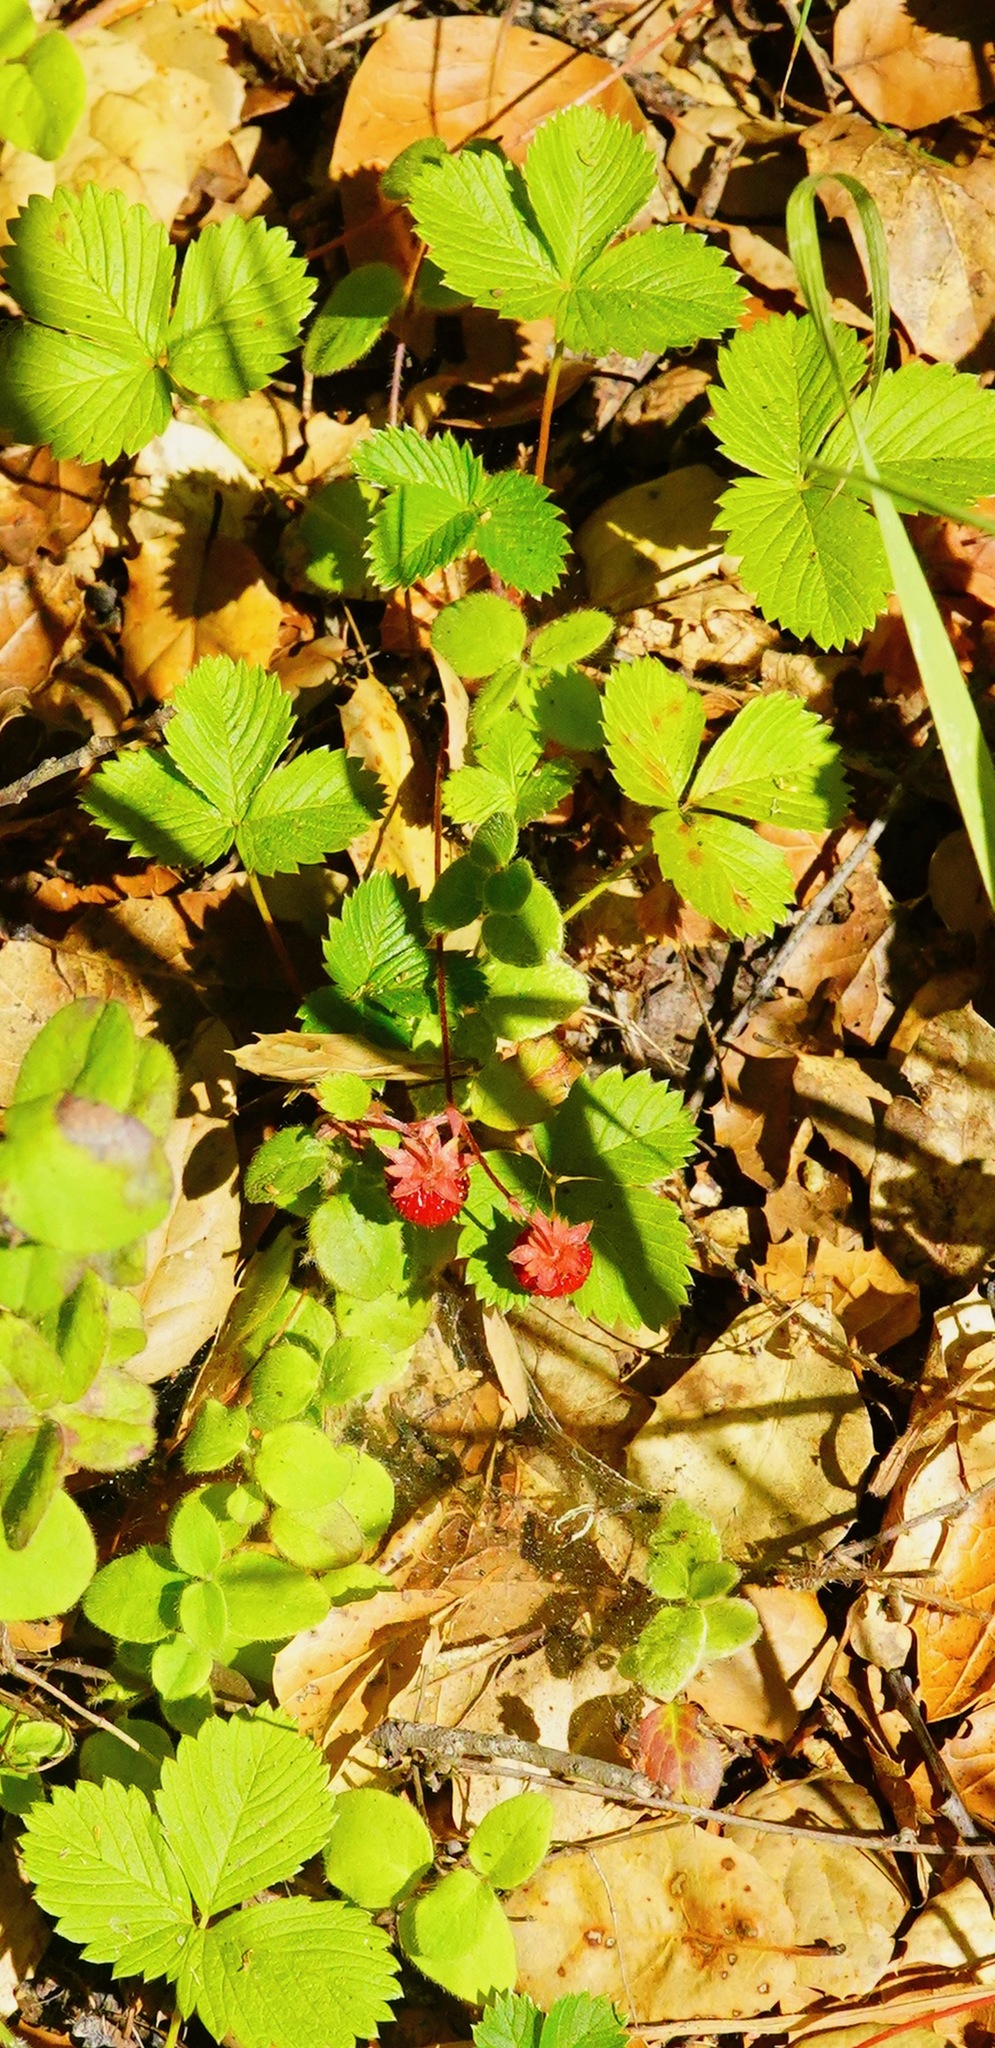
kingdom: Plantae
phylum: Tracheophyta
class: Magnoliopsida
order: Rosales
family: Rosaceae
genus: Fragaria
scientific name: Fragaria vesca
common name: Wild strawberry
